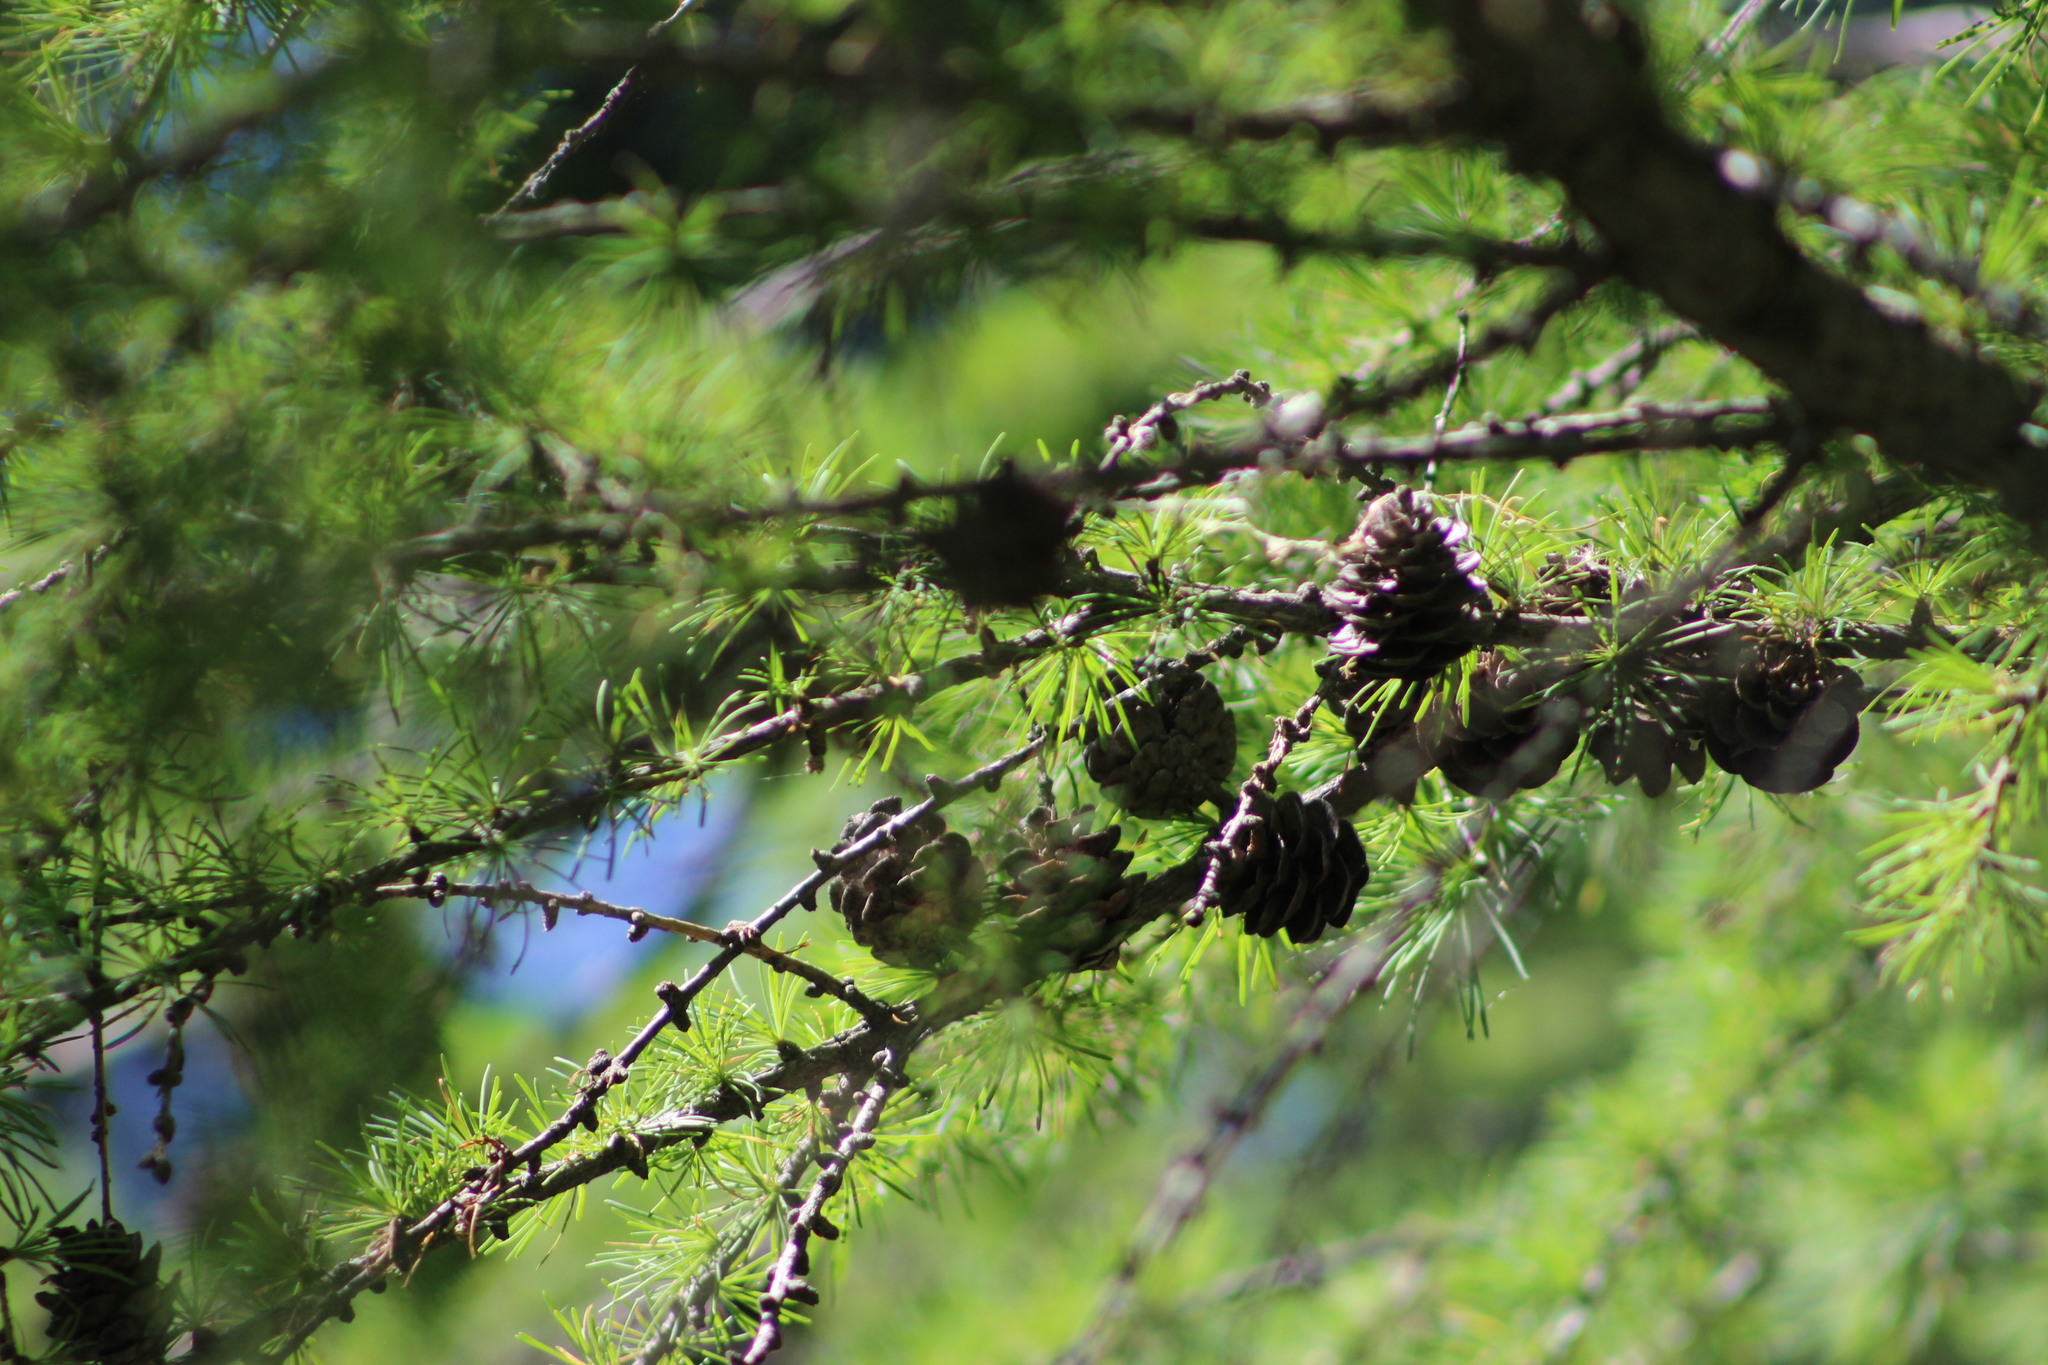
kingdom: Plantae
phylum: Tracheophyta
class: Pinopsida
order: Pinales
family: Pinaceae
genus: Larix
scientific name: Larix sibirica
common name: Siberian larch
